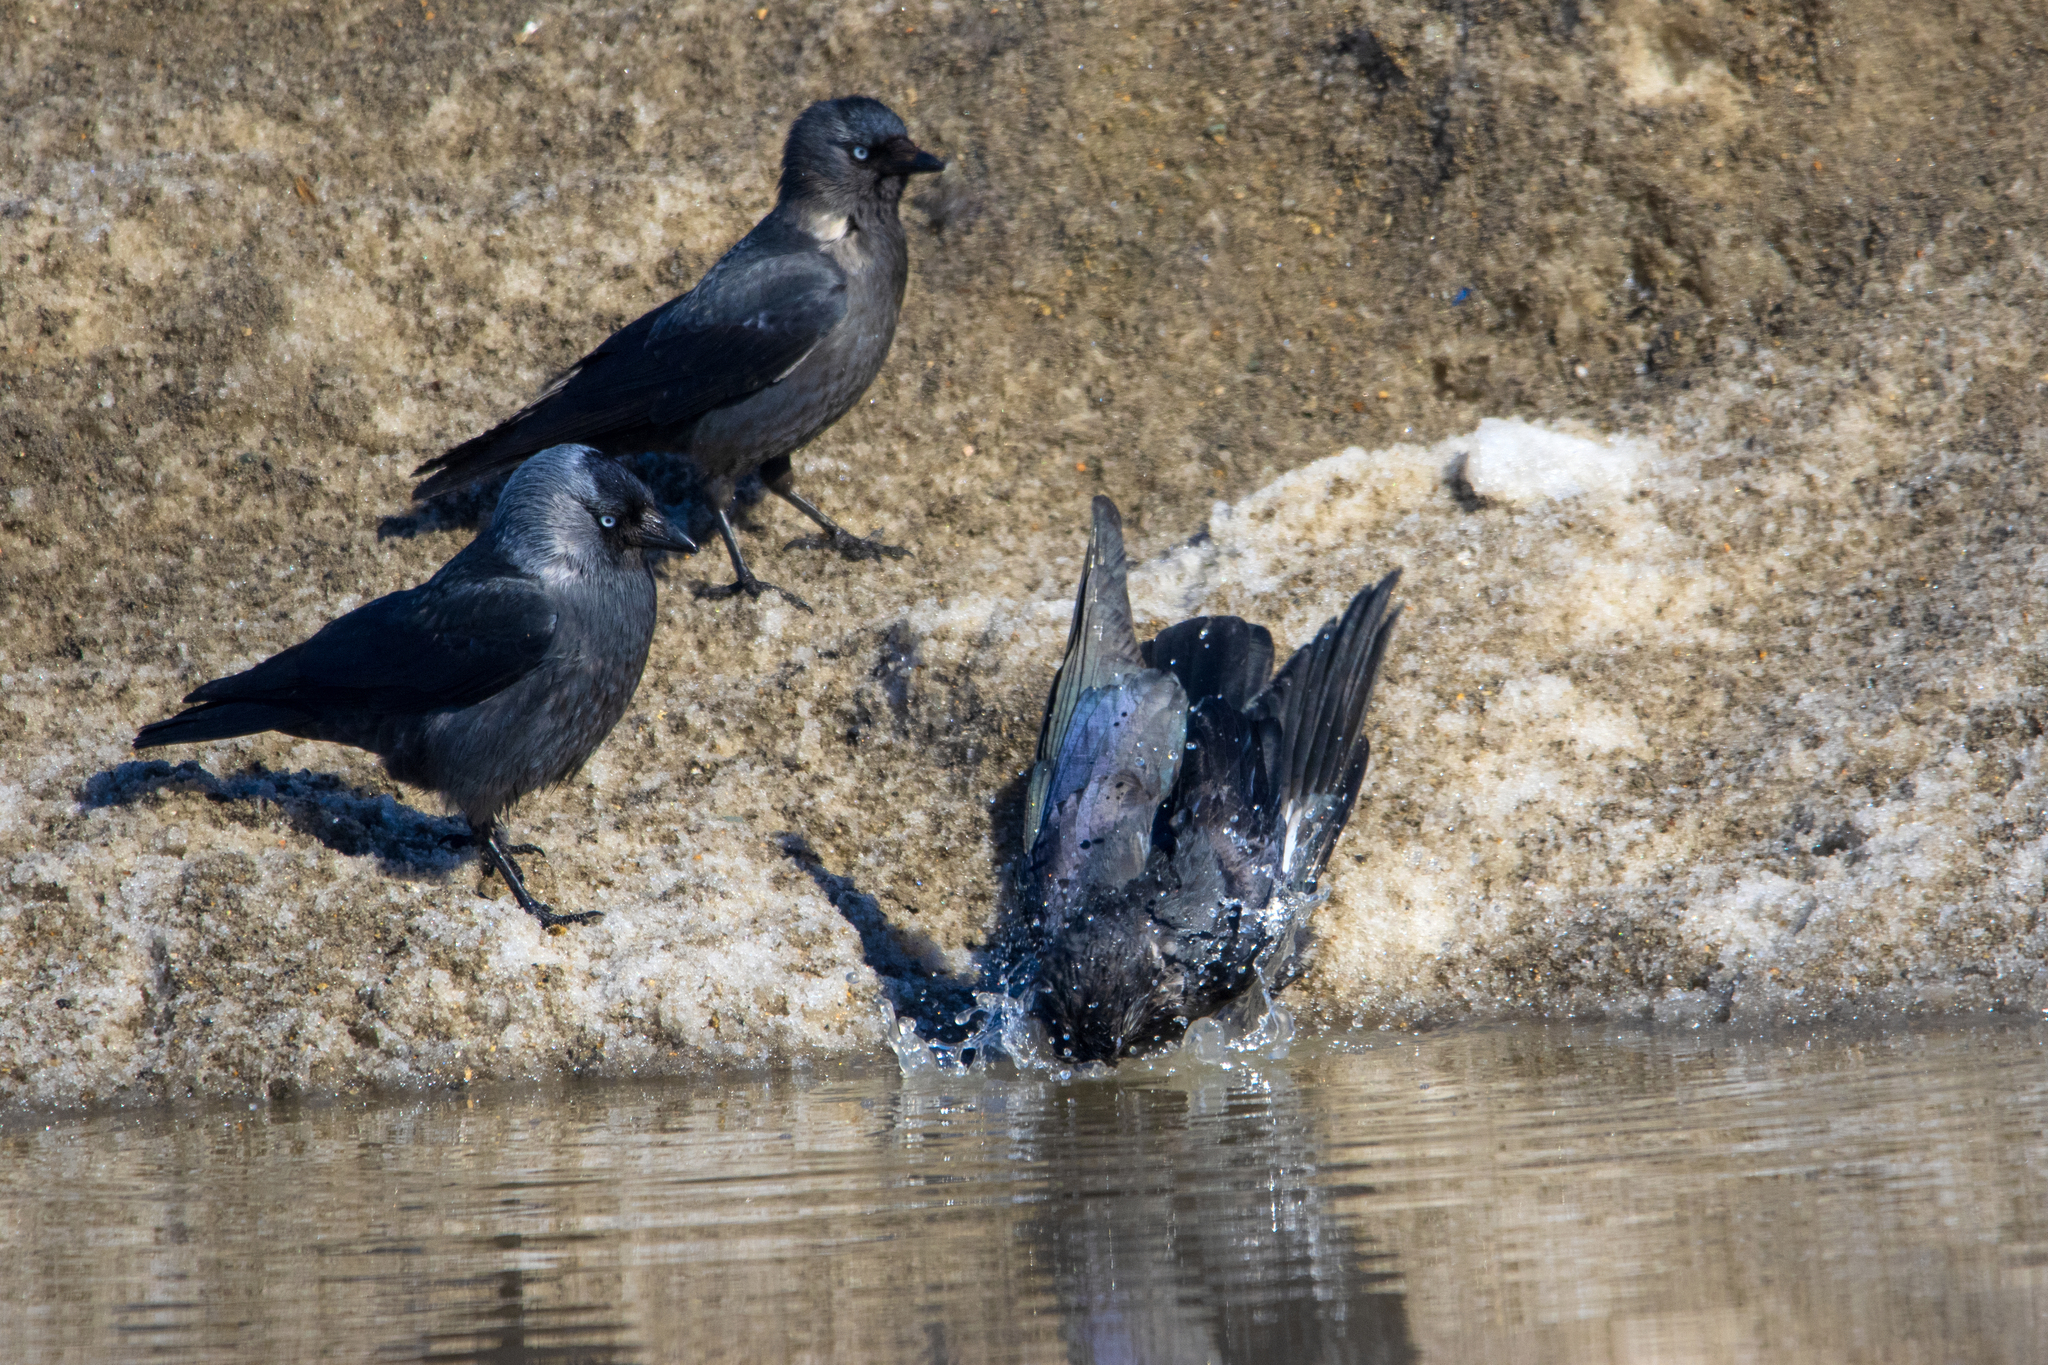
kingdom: Animalia
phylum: Chordata
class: Aves
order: Passeriformes
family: Corvidae
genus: Coloeus
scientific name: Coloeus monedula
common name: Western jackdaw
